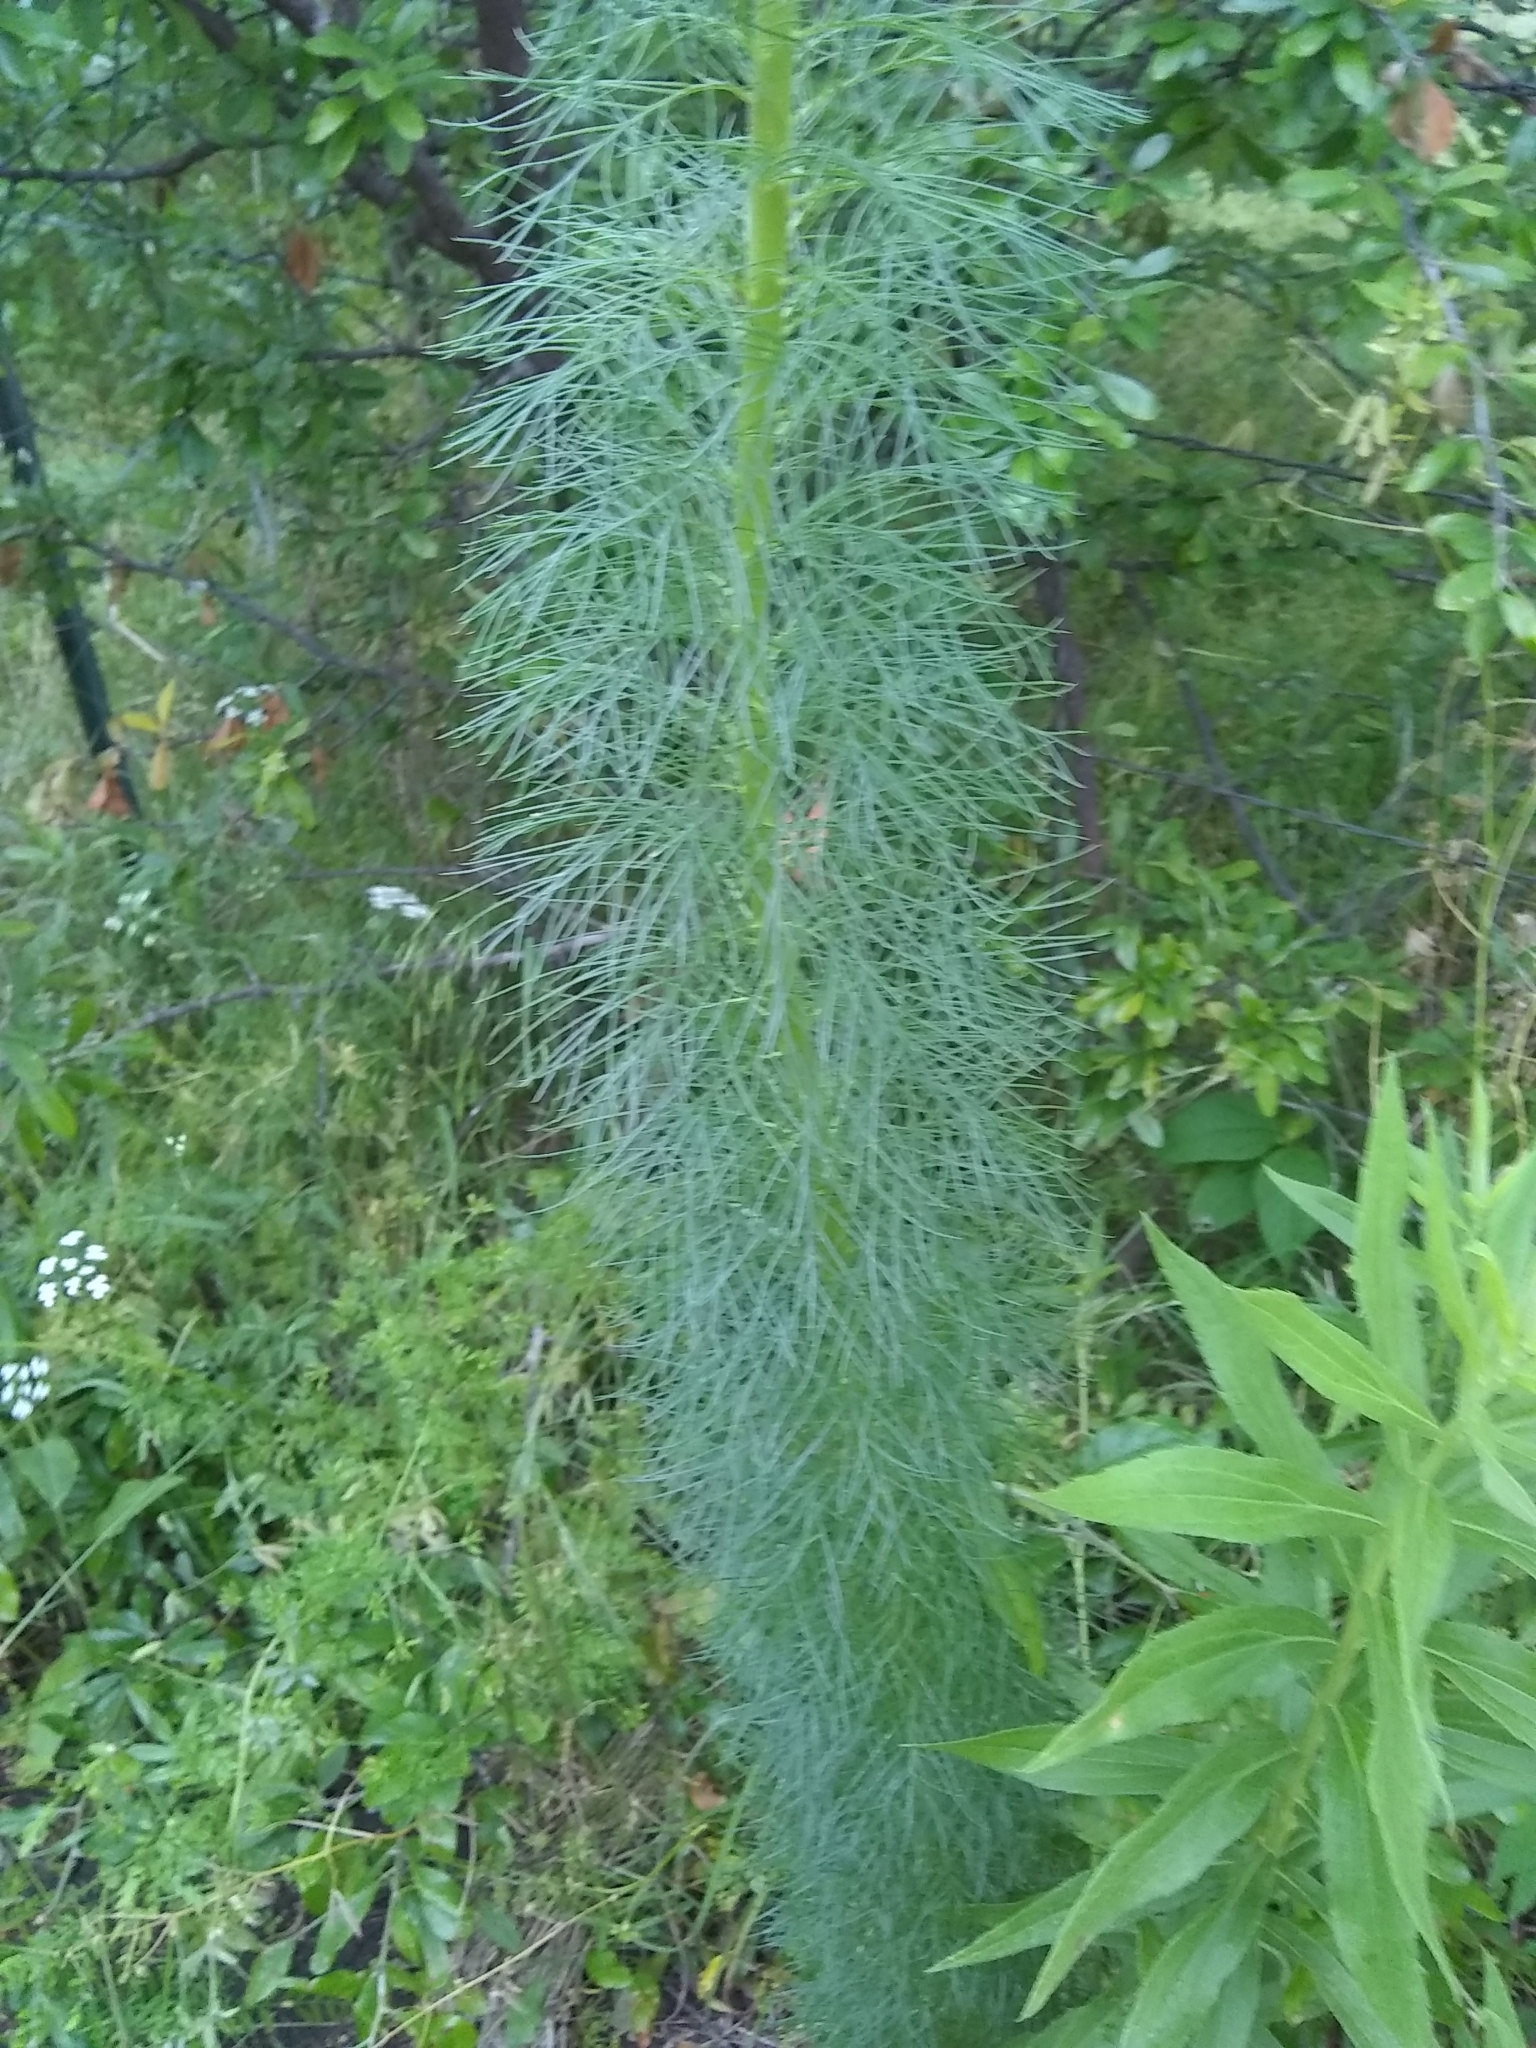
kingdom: Plantae
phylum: Tracheophyta
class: Magnoliopsida
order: Ericales
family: Polemoniaceae
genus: Ipomopsis
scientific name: Ipomopsis rubra
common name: Skyrocket
